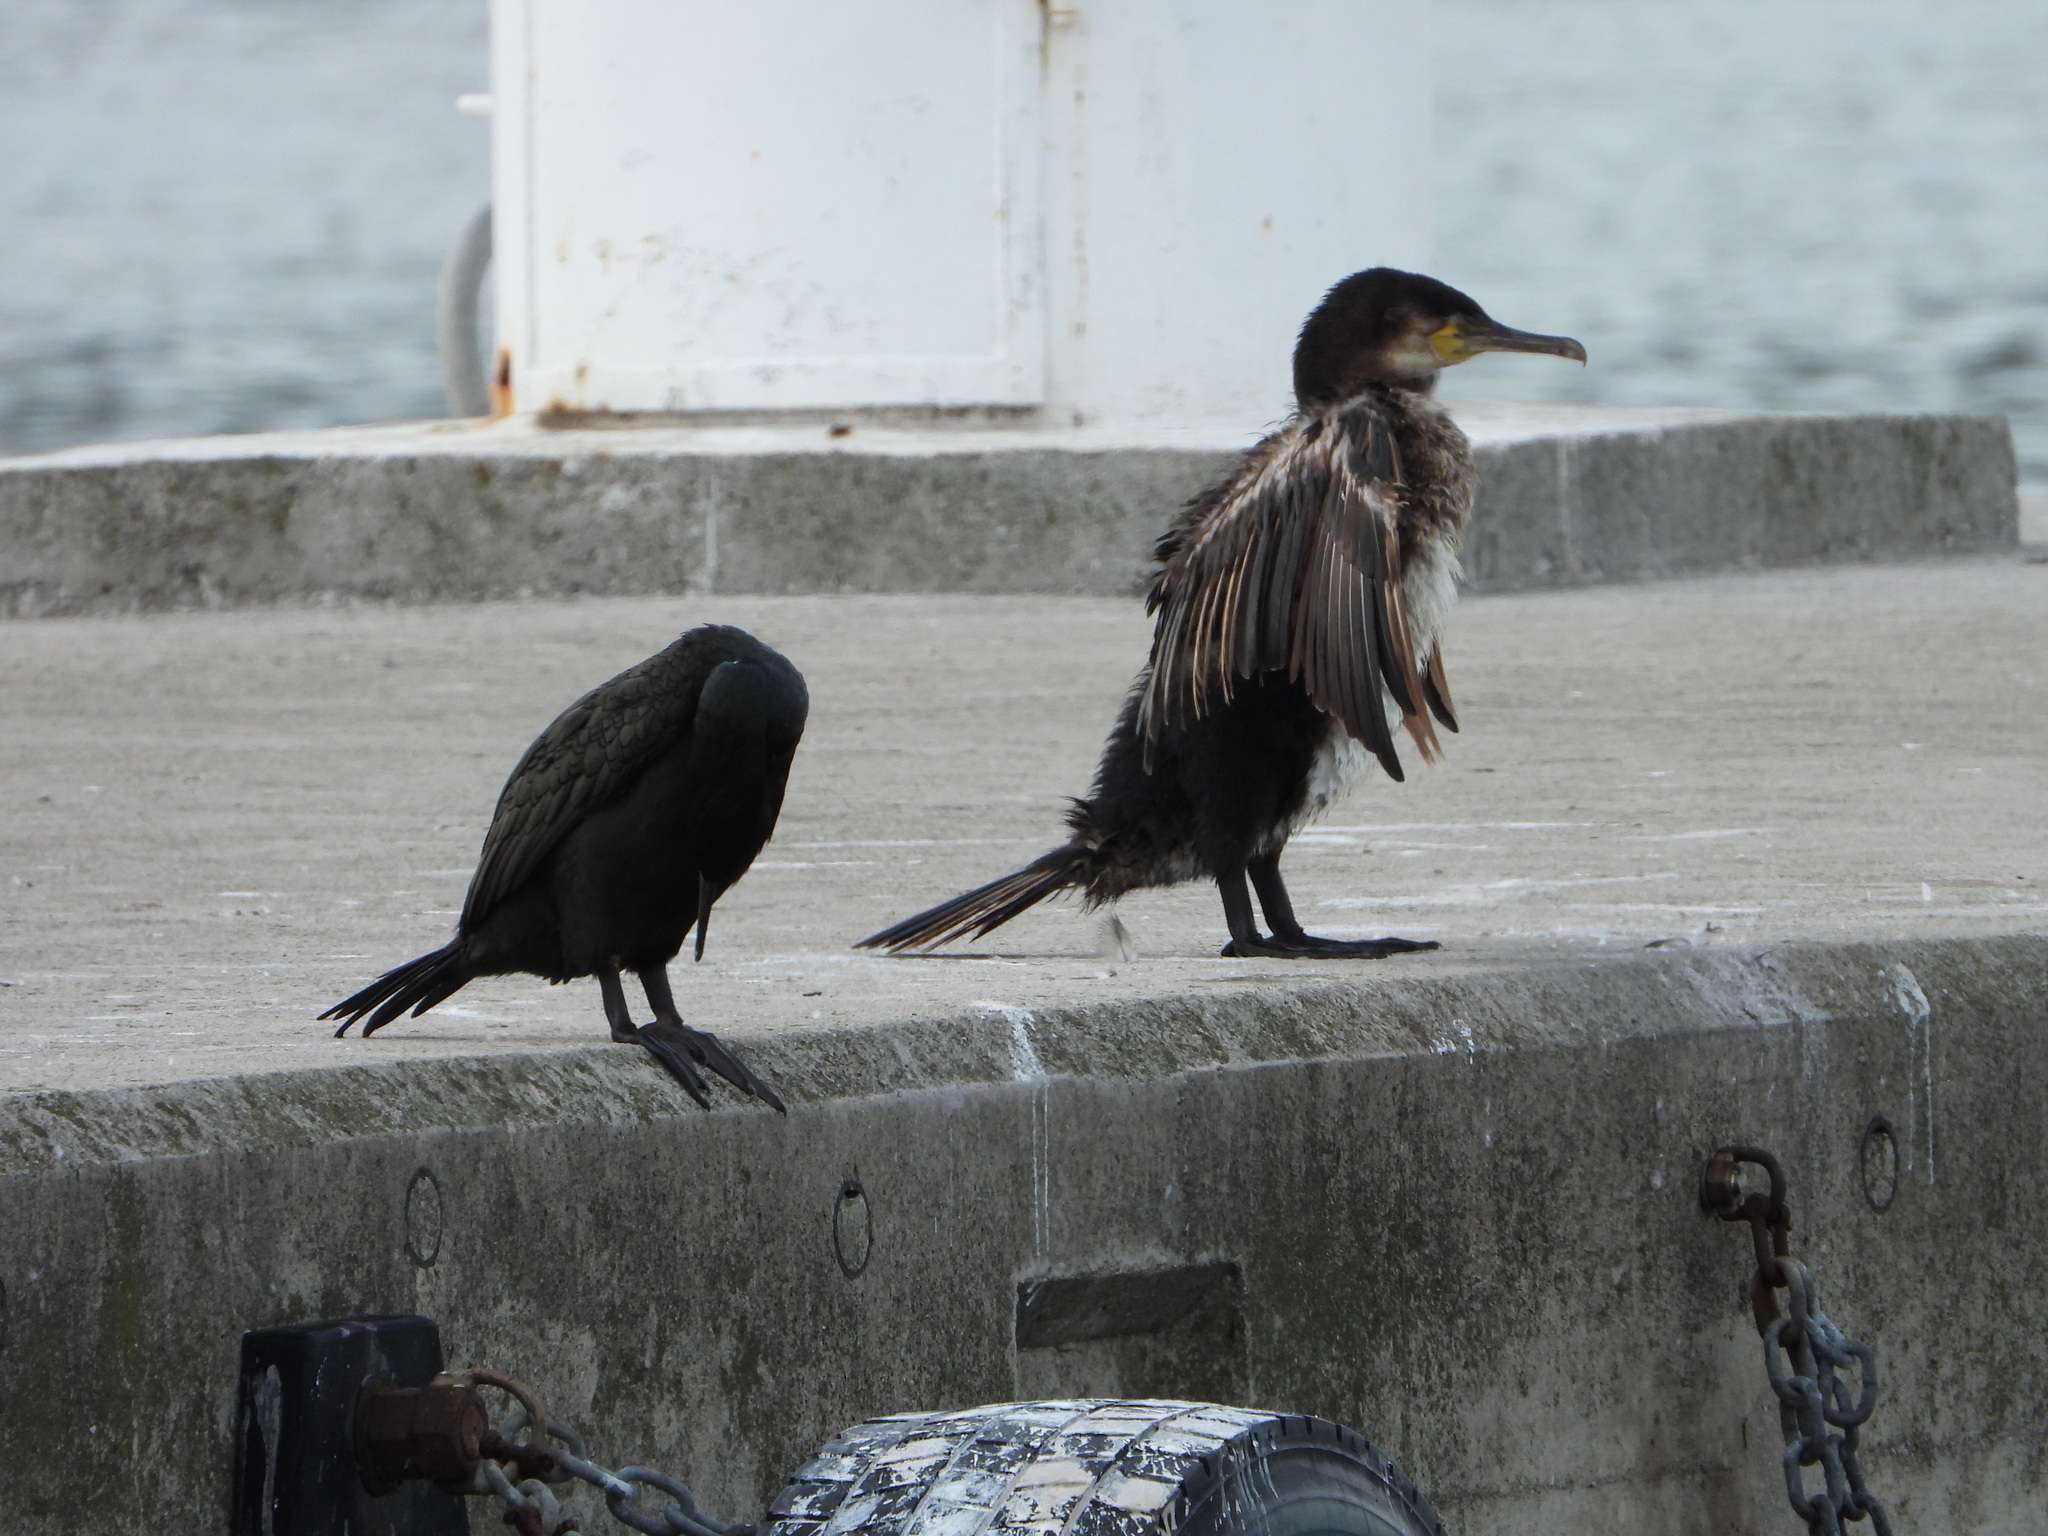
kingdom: Animalia
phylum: Chordata
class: Aves
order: Suliformes
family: Phalacrocoracidae
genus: Phalacrocorax
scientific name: Phalacrocorax carbo
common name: Great cormorant
